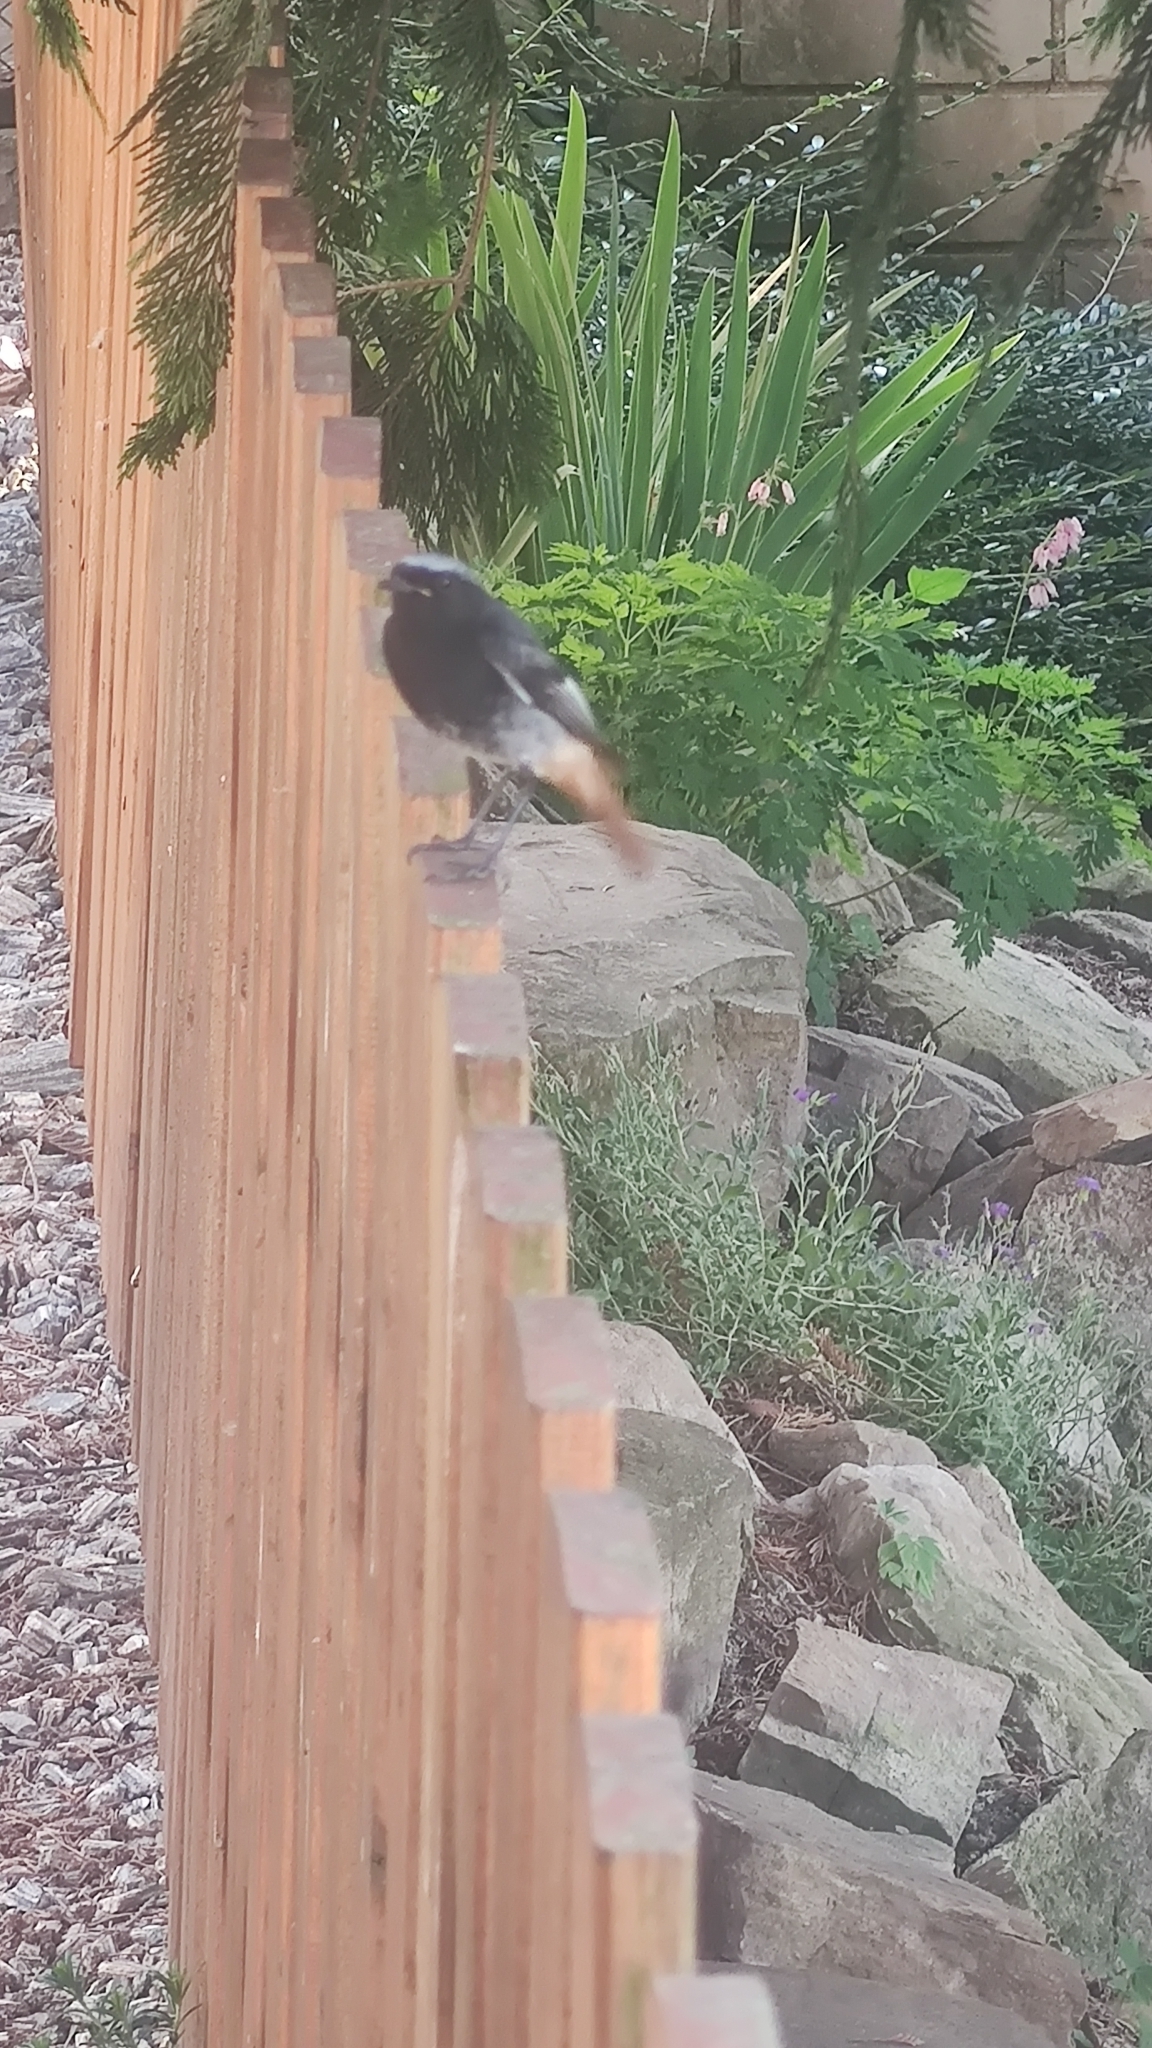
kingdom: Animalia
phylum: Chordata
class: Aves
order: Passeriformes
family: Muscicapidae
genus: Phoenicurus
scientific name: Phoenicurus ochruros
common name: Black redstart
